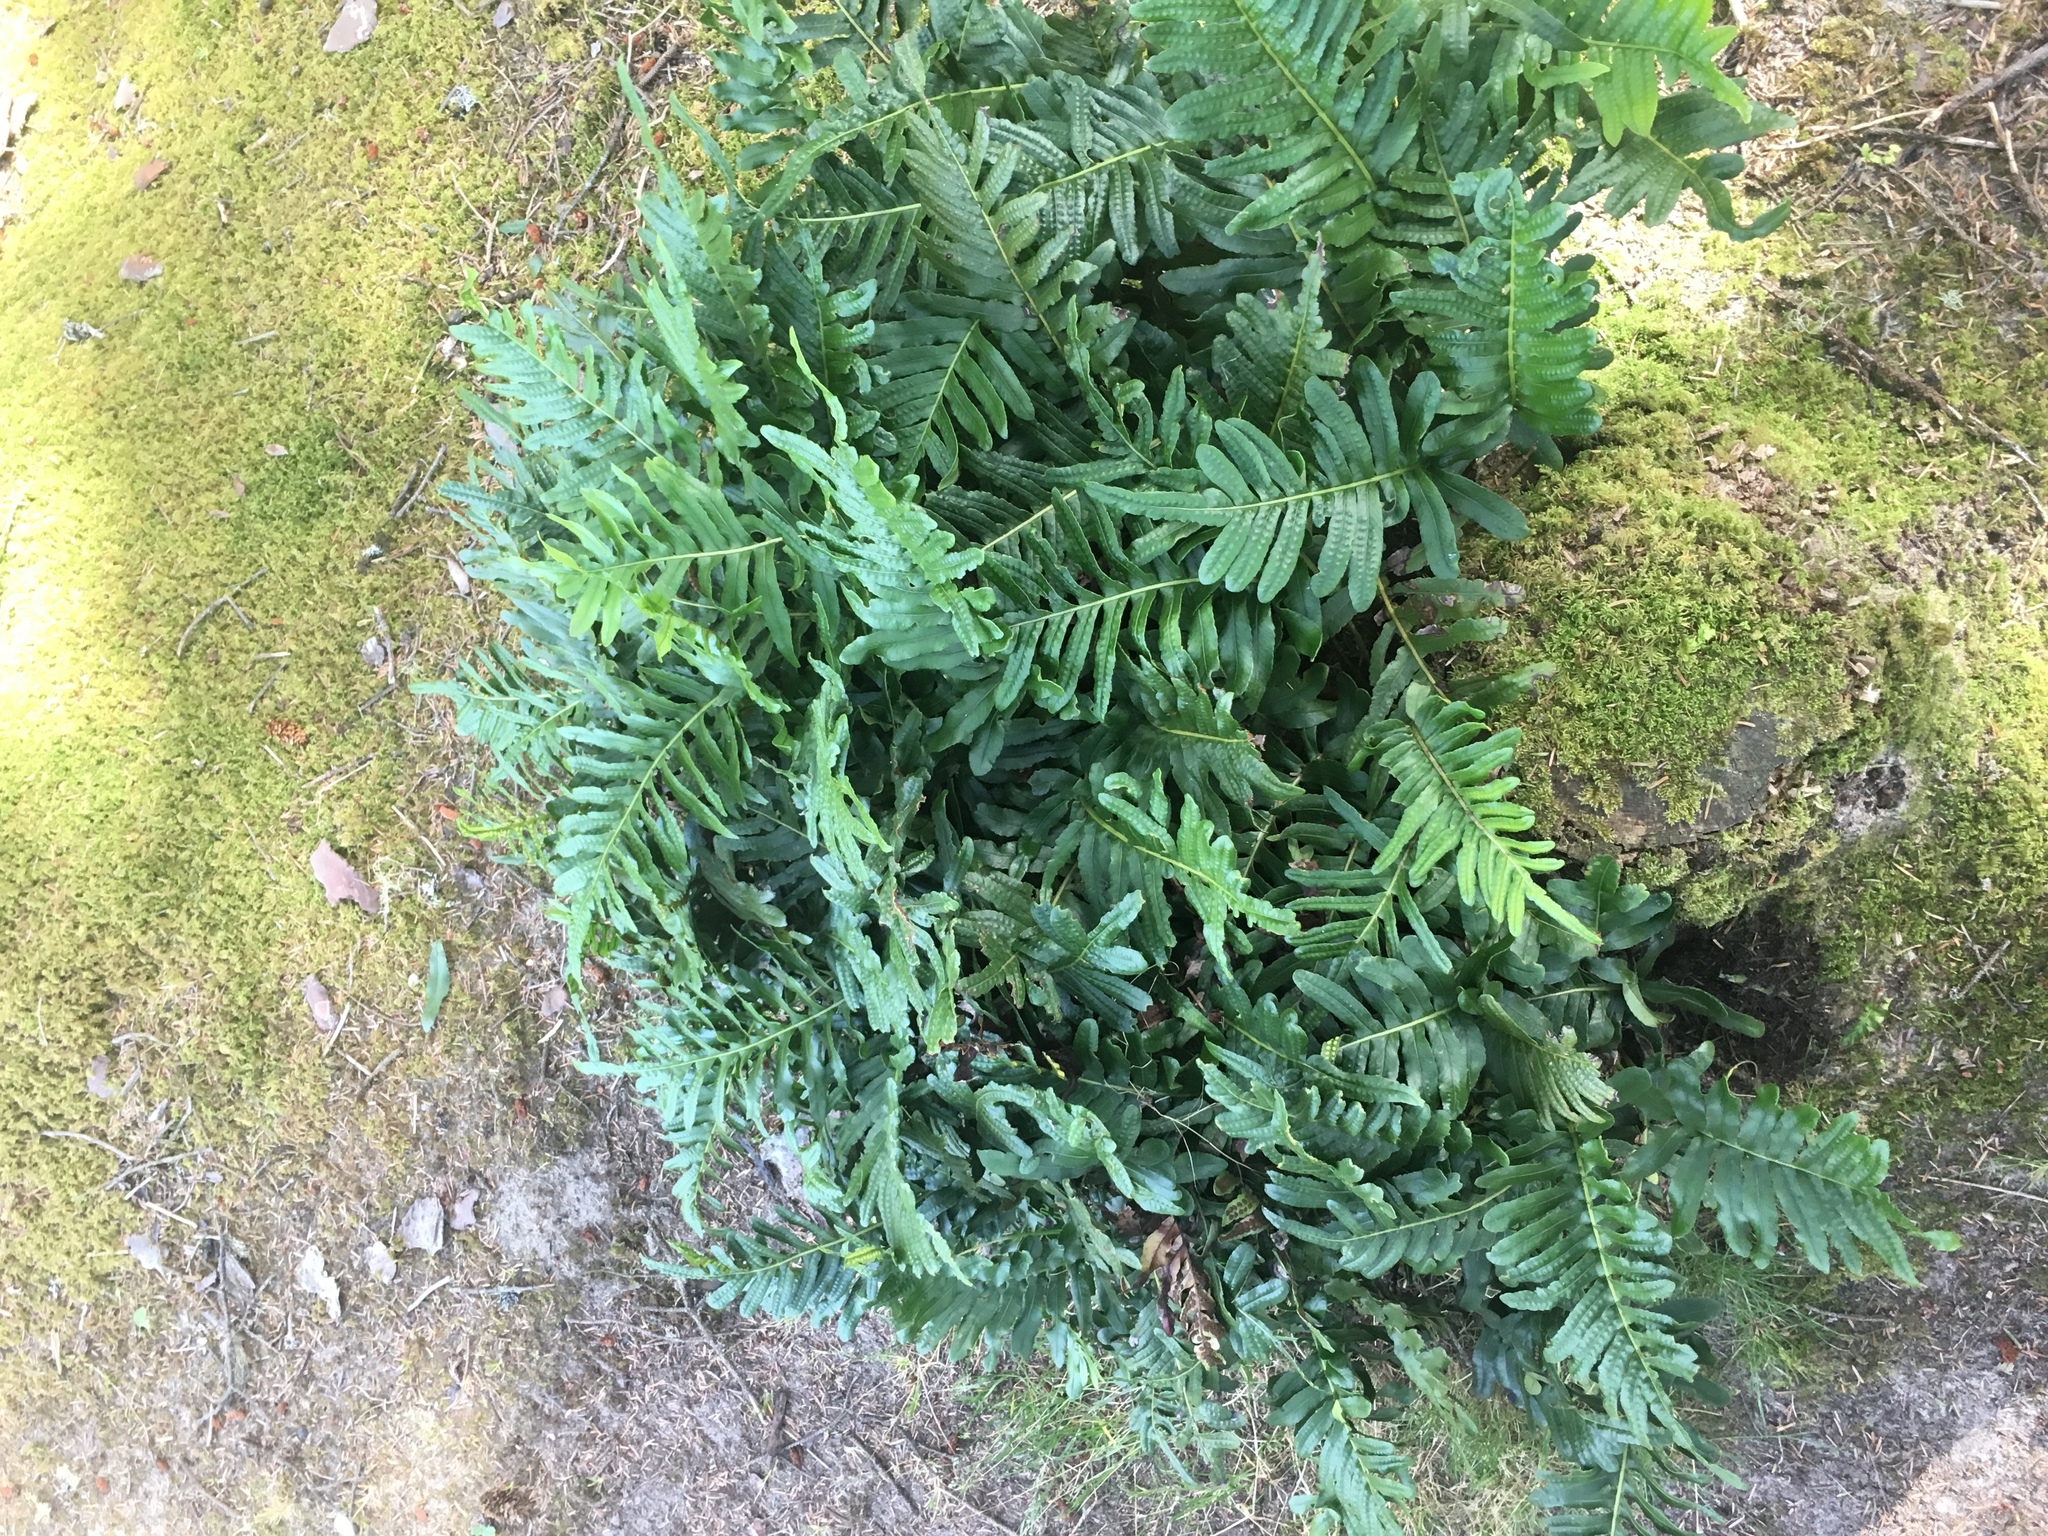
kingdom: Plantae
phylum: Tracheophyta
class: Polypodiopsida
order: Polypodiales
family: Polypodiaceae
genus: Polypodium
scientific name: Polypodium glycyrrhiza
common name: Licorice fern
